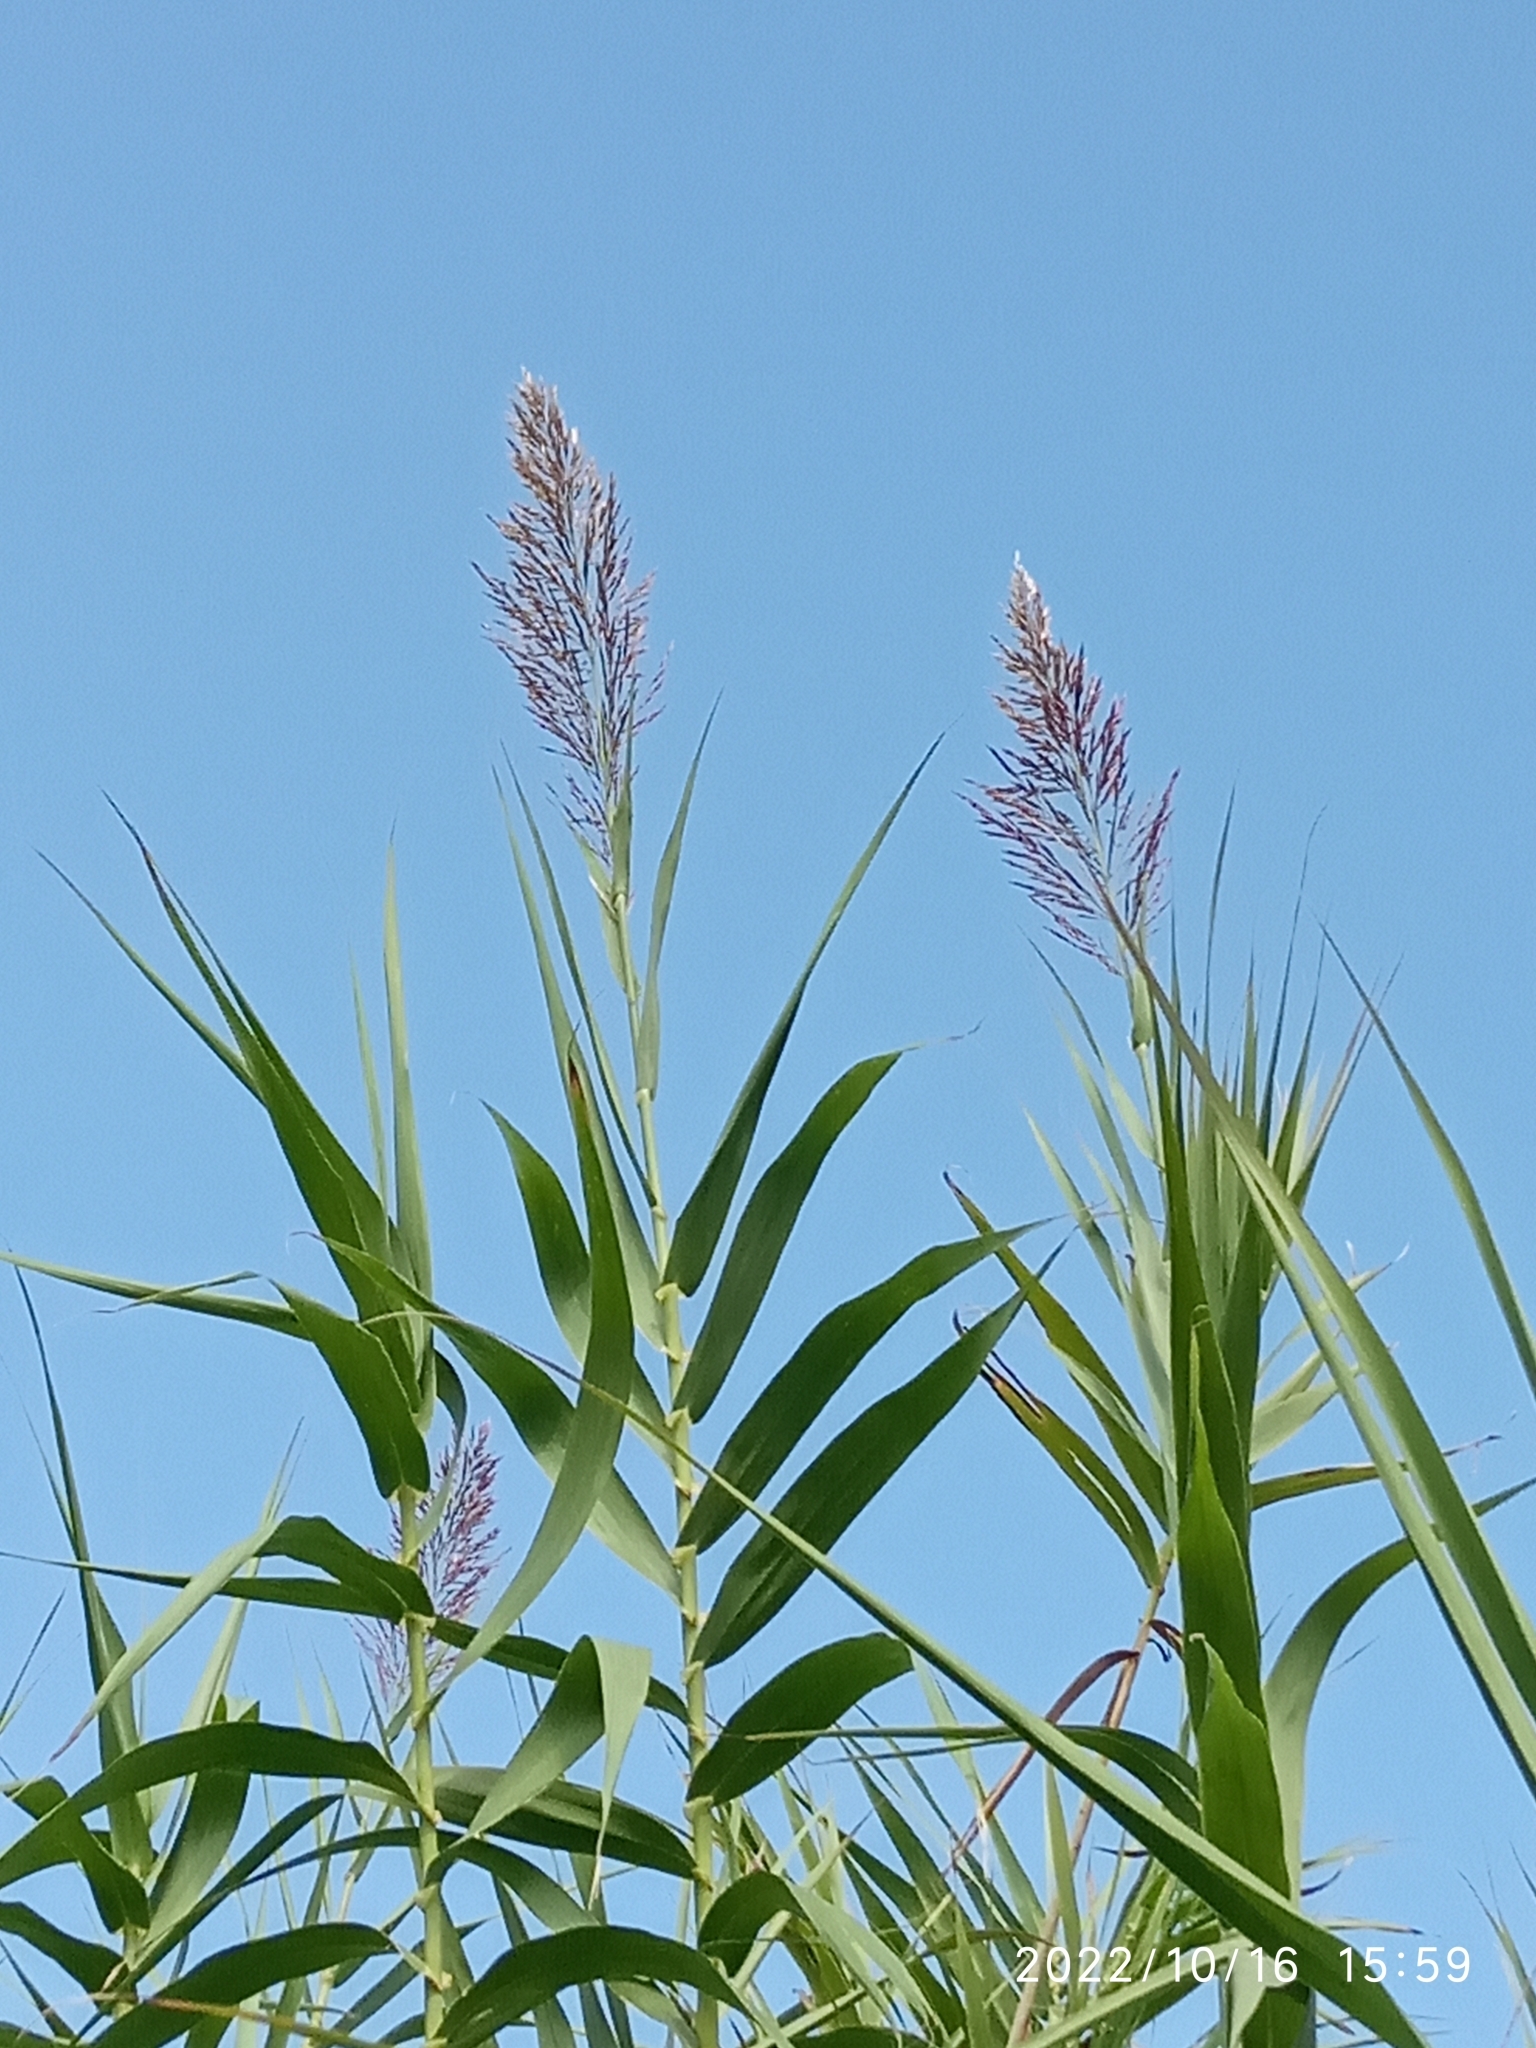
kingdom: Plantae
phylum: Tracheophyta
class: Liliopsida
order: Poales
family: Poaceae
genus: Arundo
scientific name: Arundo donax
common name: Giant reed
